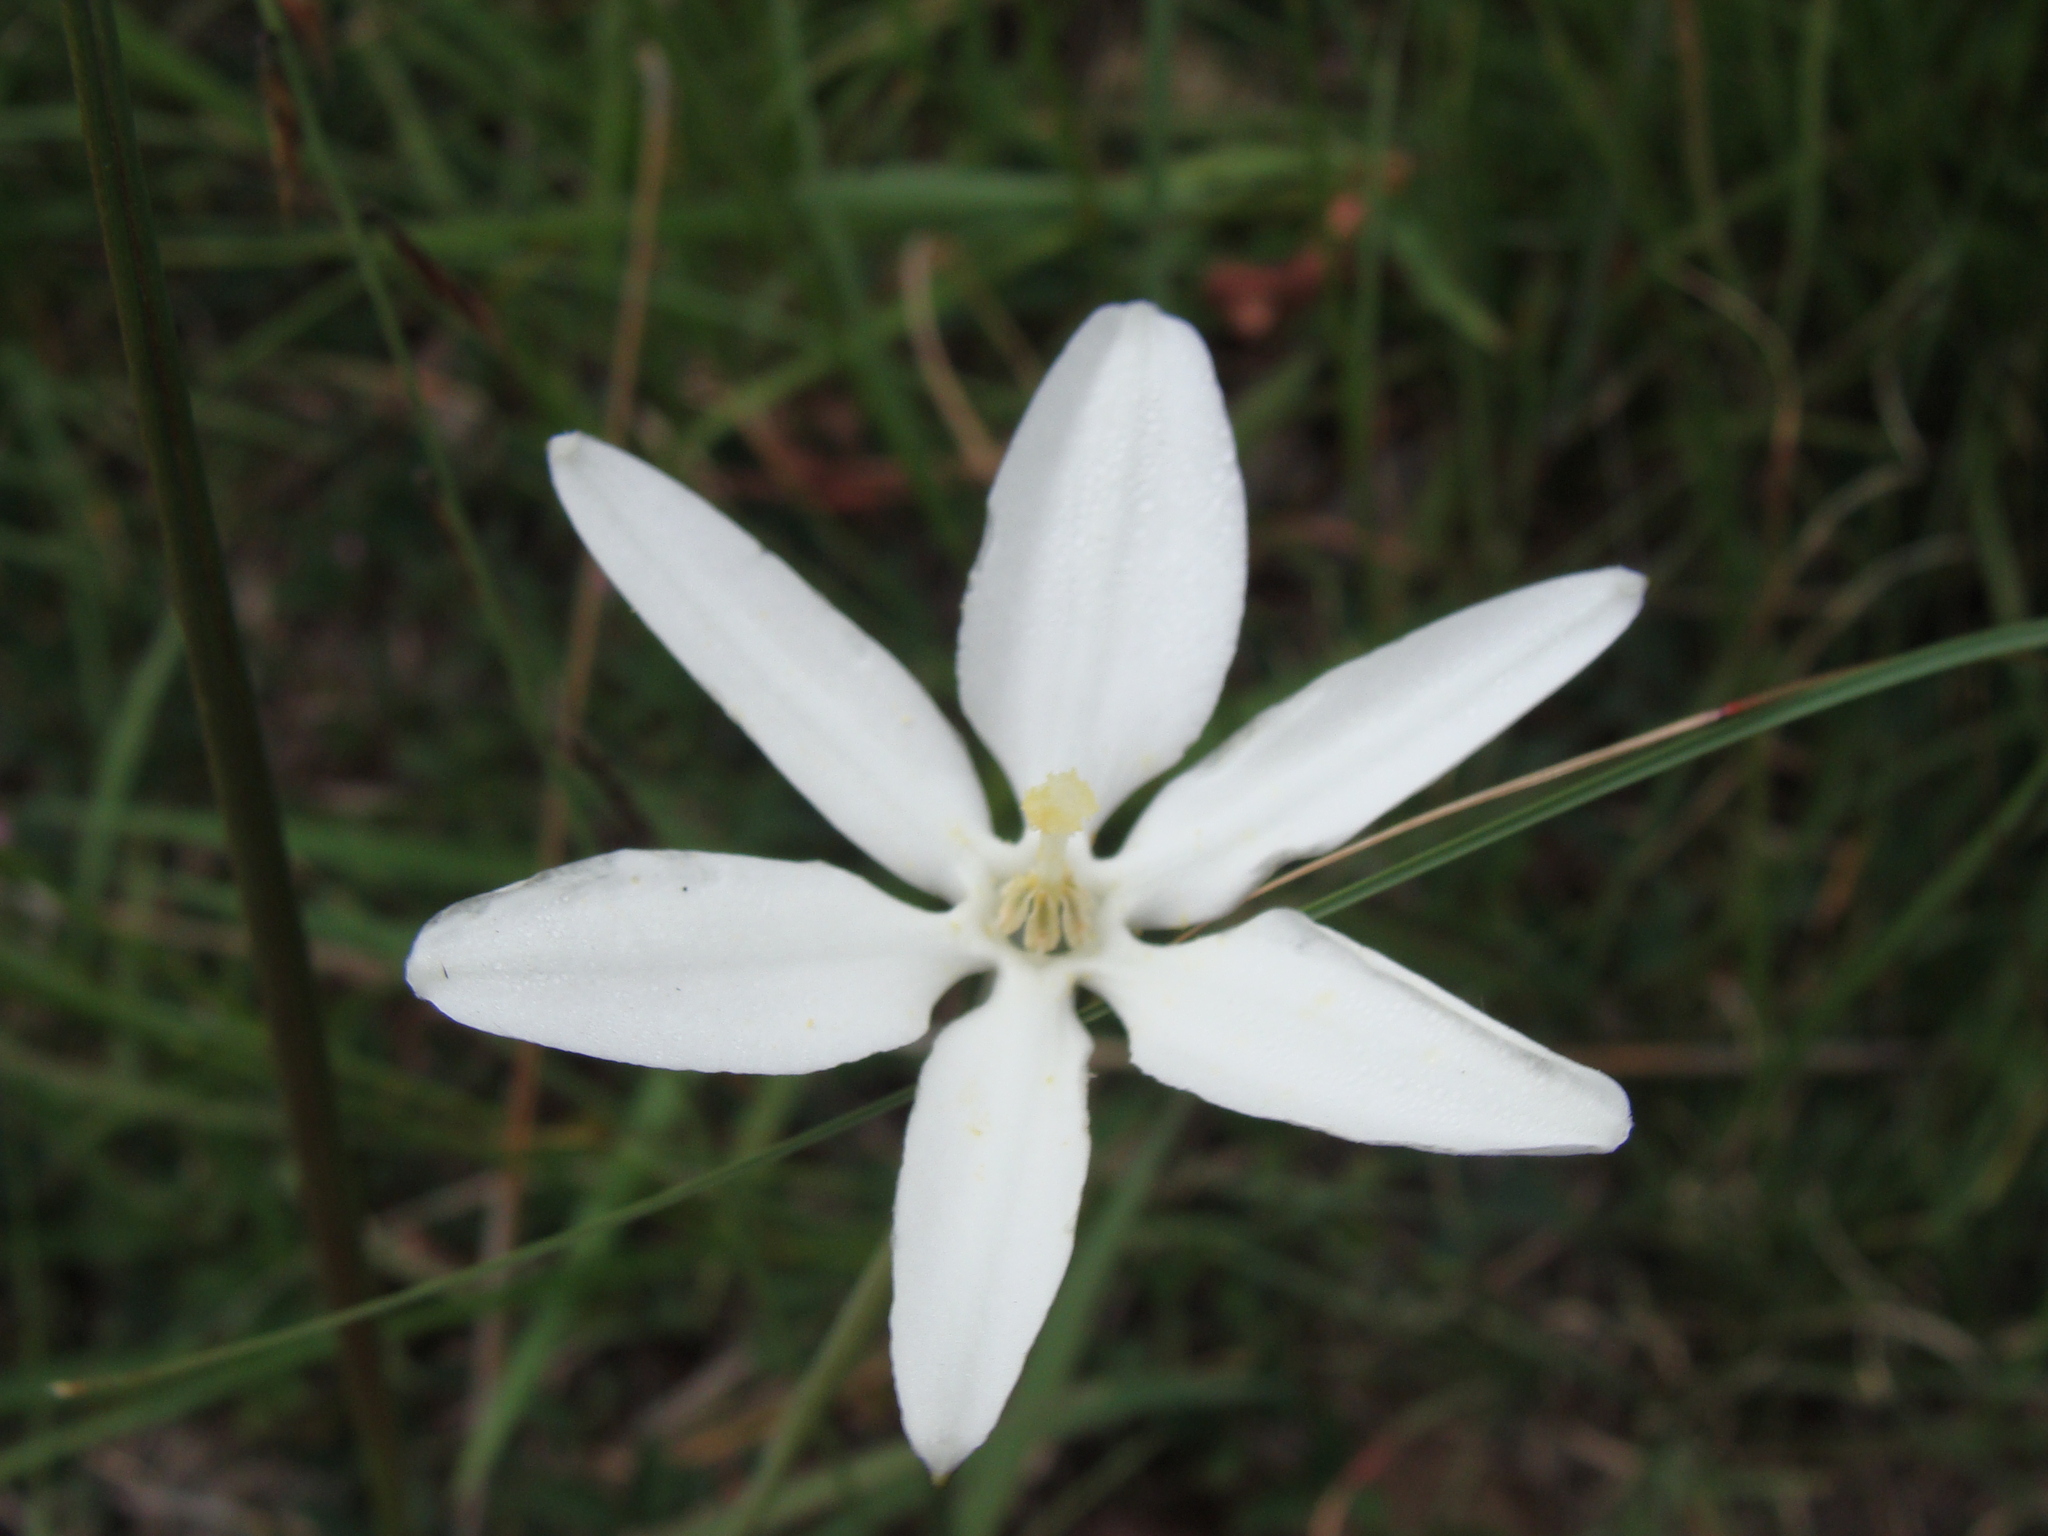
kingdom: Plantae
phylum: Tracheophyta
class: Liliopsida
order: Asparagales
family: Asparagaceae
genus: Milla
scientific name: Milla biflora
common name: Mexican-star
